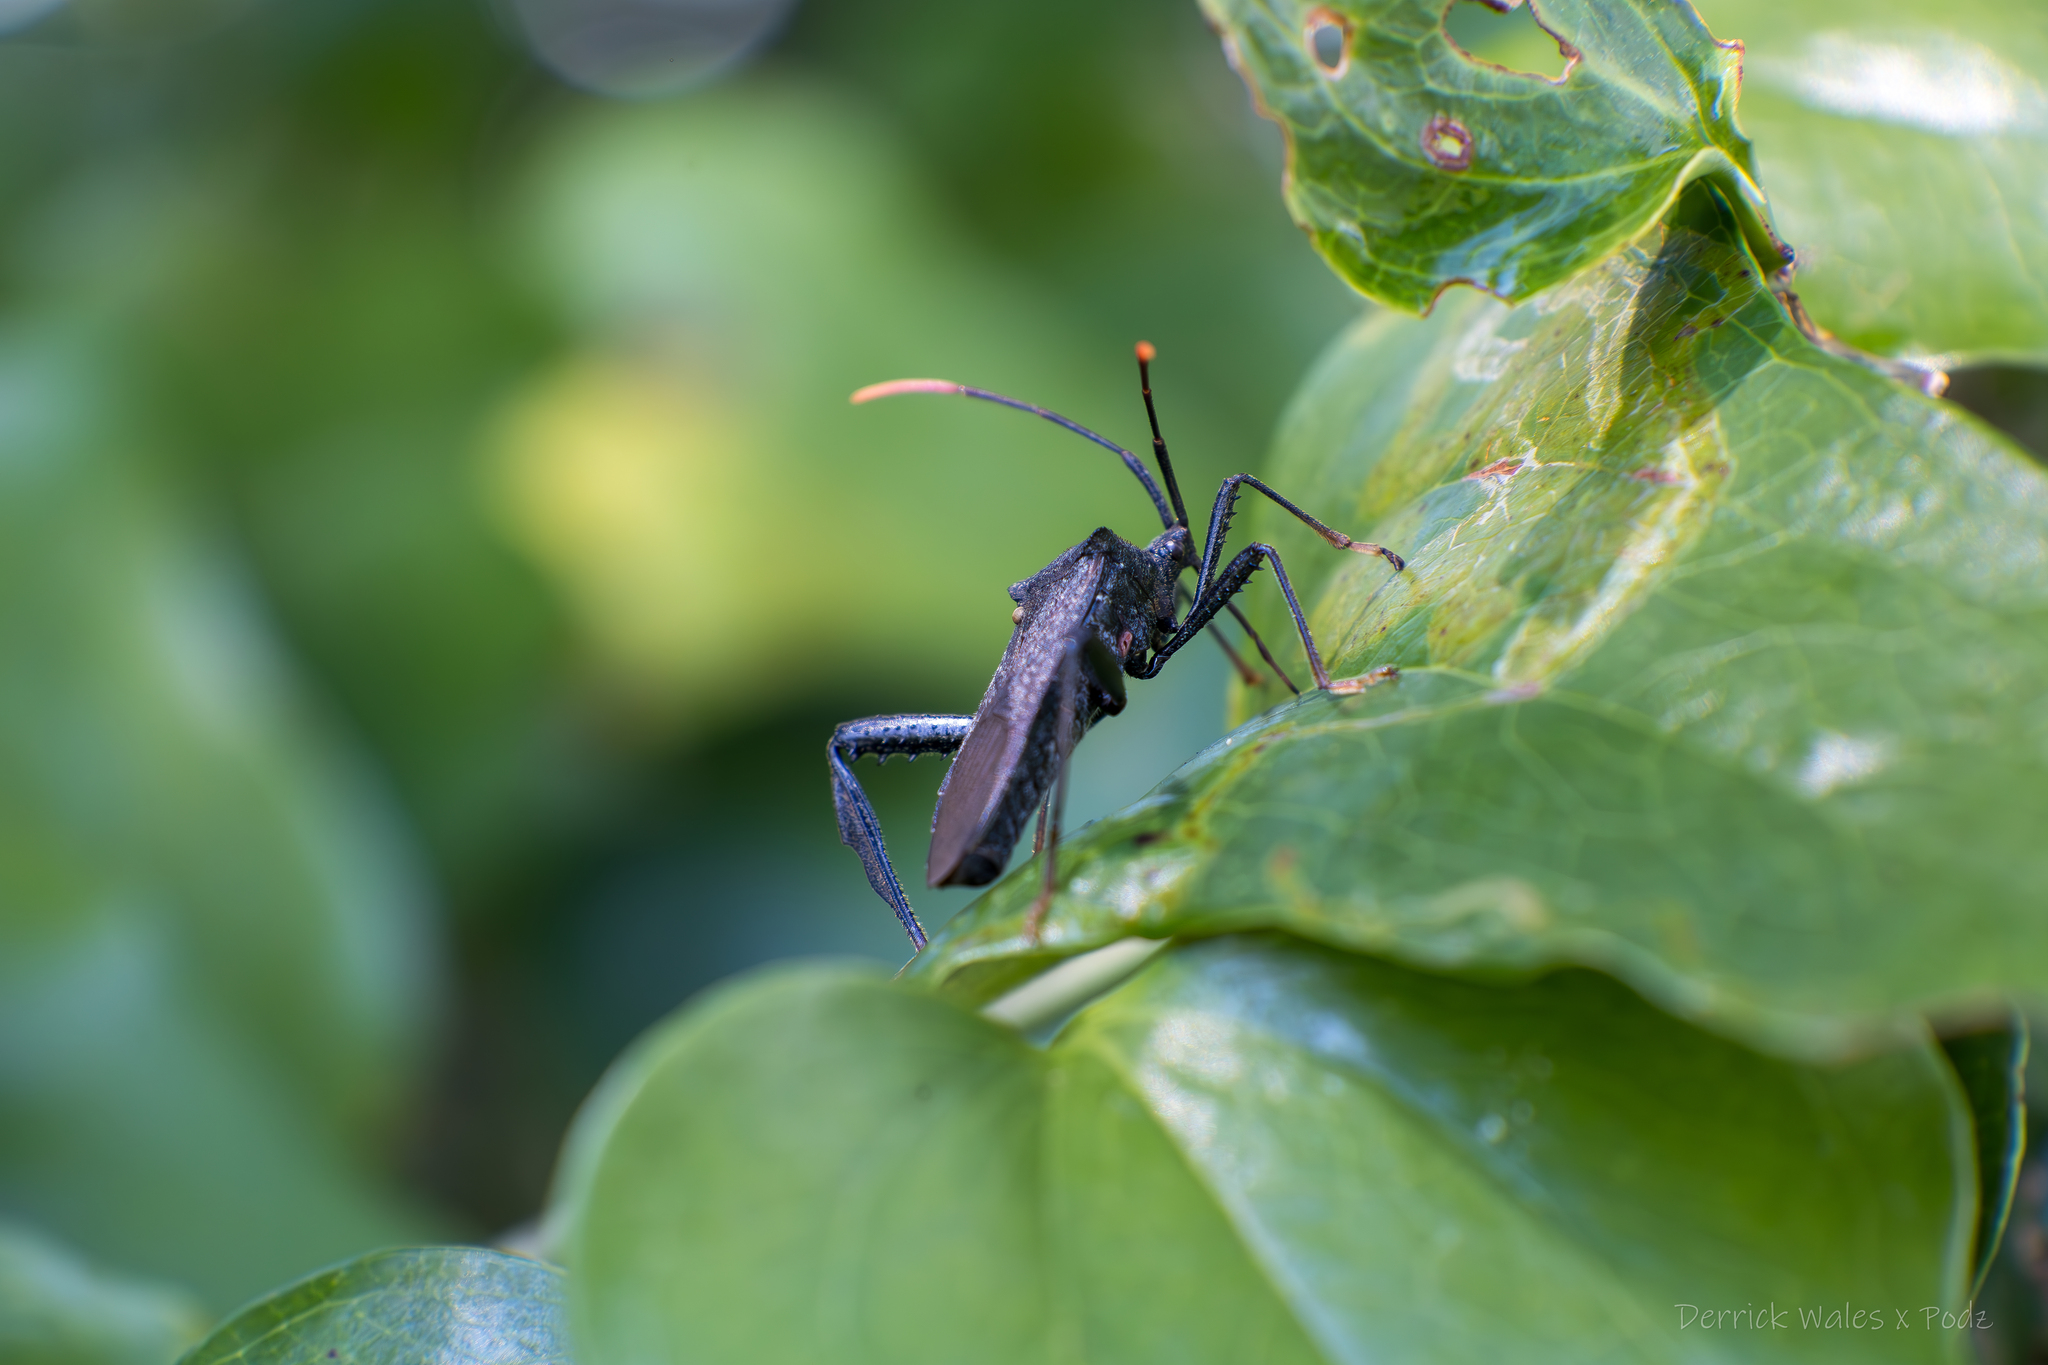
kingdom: Animalia
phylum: Arthropoda
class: Insecta
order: Hemiptera
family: Coreidae
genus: Acanthocephala
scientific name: Acanthocephala terminalis
